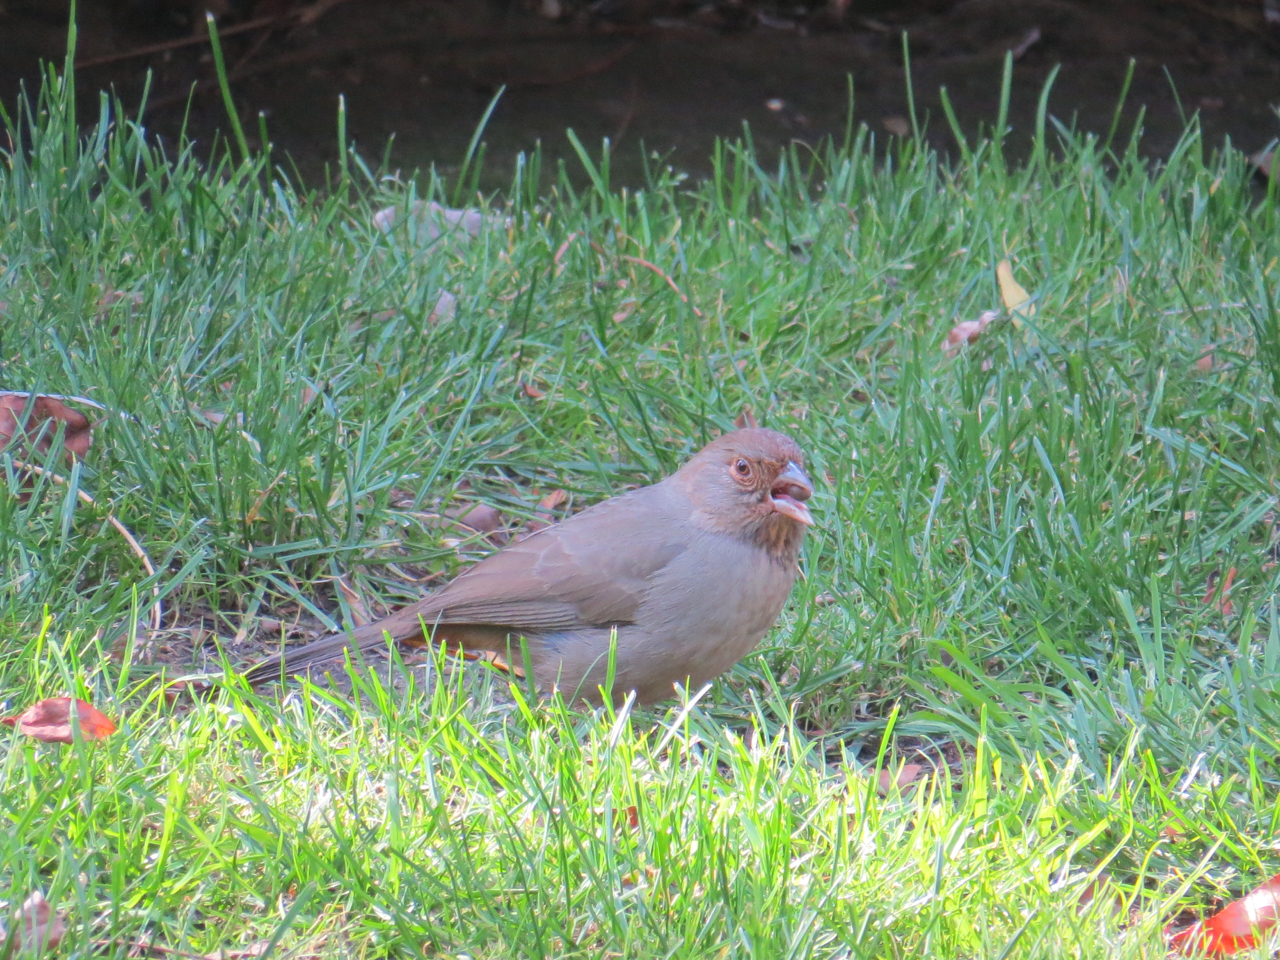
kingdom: Animalia
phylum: Chordata
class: Aves
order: Passeriformes
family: Passerellidae
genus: Melozone
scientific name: Melozone crissalis
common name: California towhee
